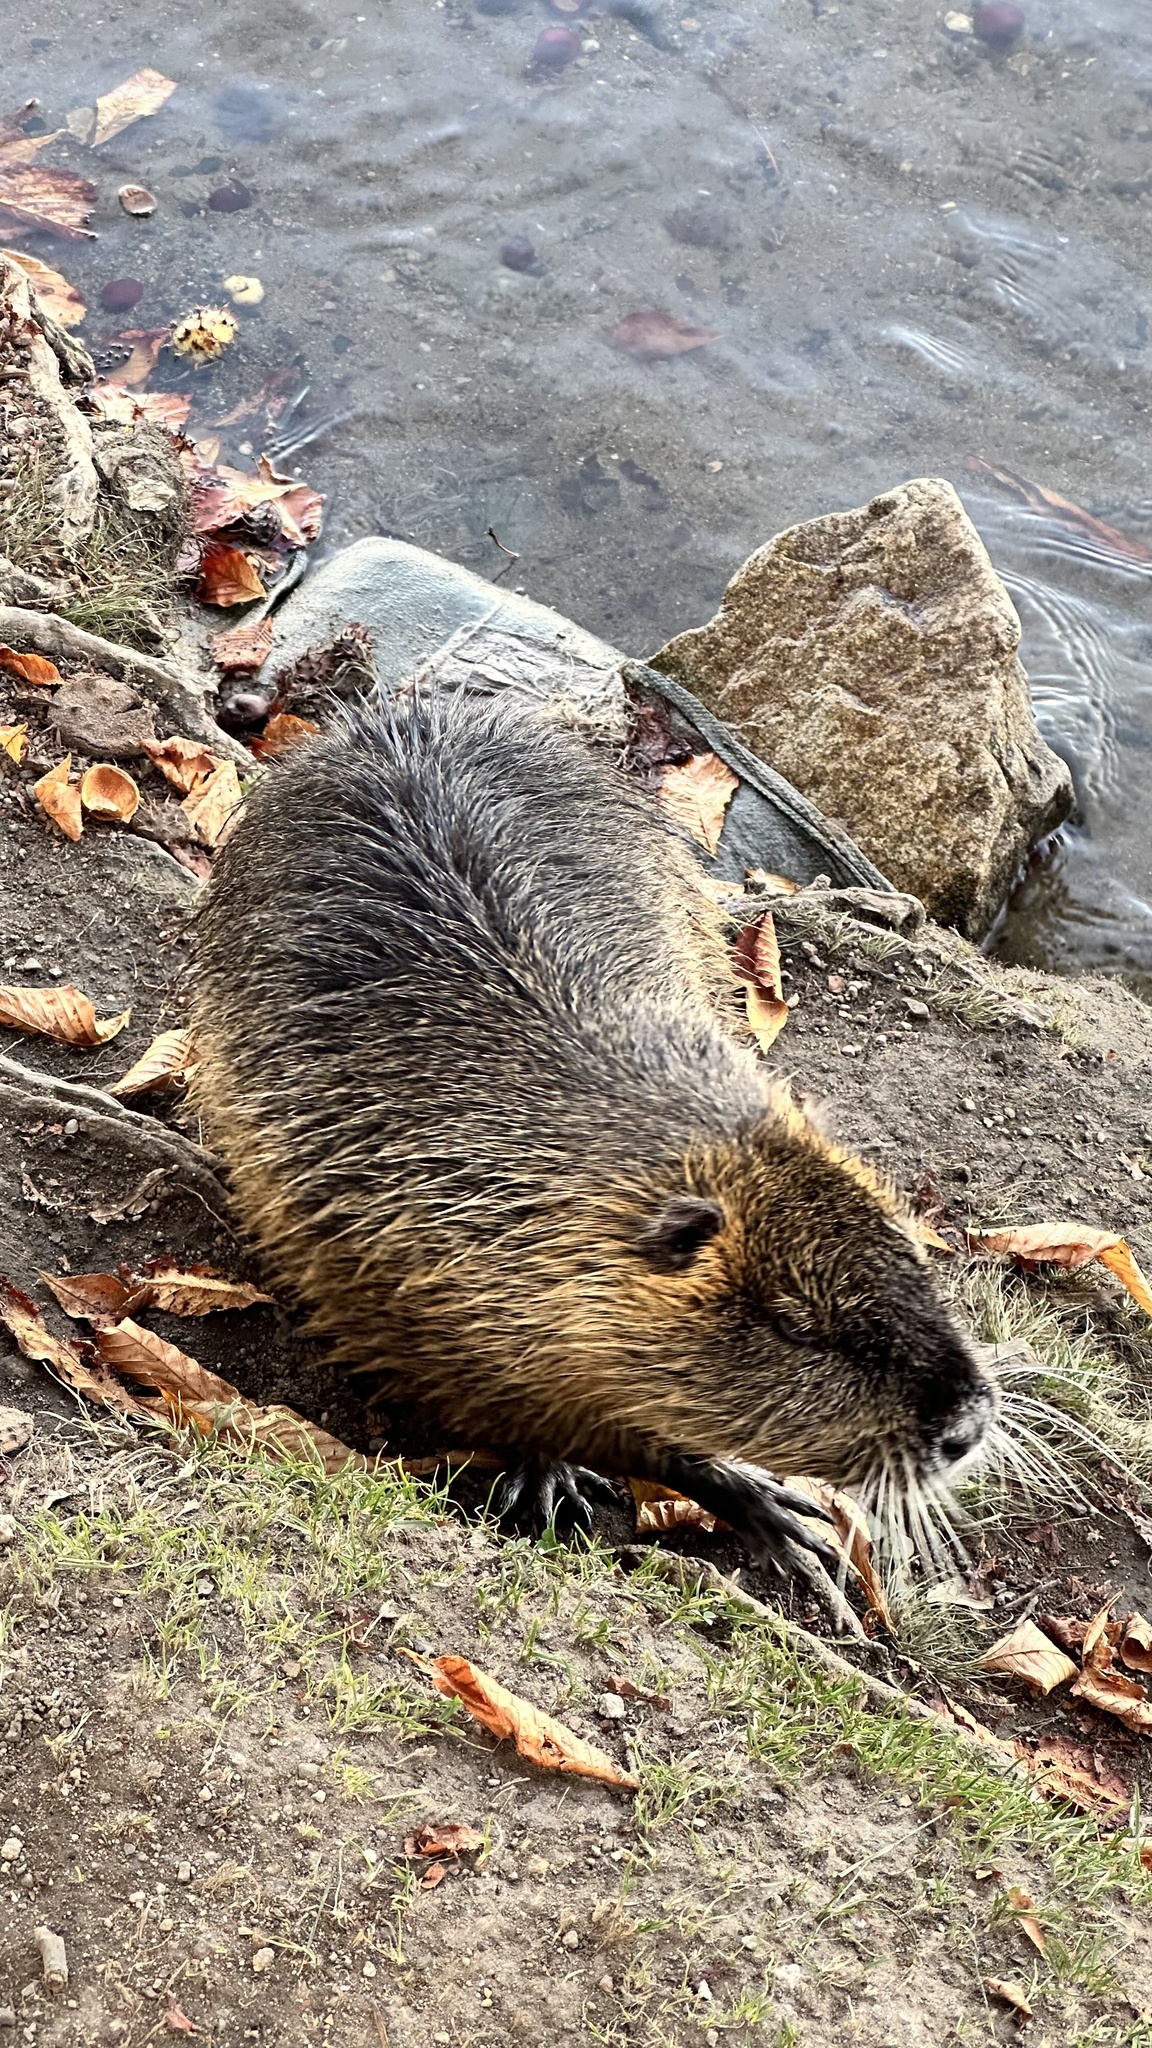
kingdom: Animalia
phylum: Chordata
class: Mammalia
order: Rodentia
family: Myocastoridae
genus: Myocastor
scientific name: Myocastor coypus
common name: Coypu
